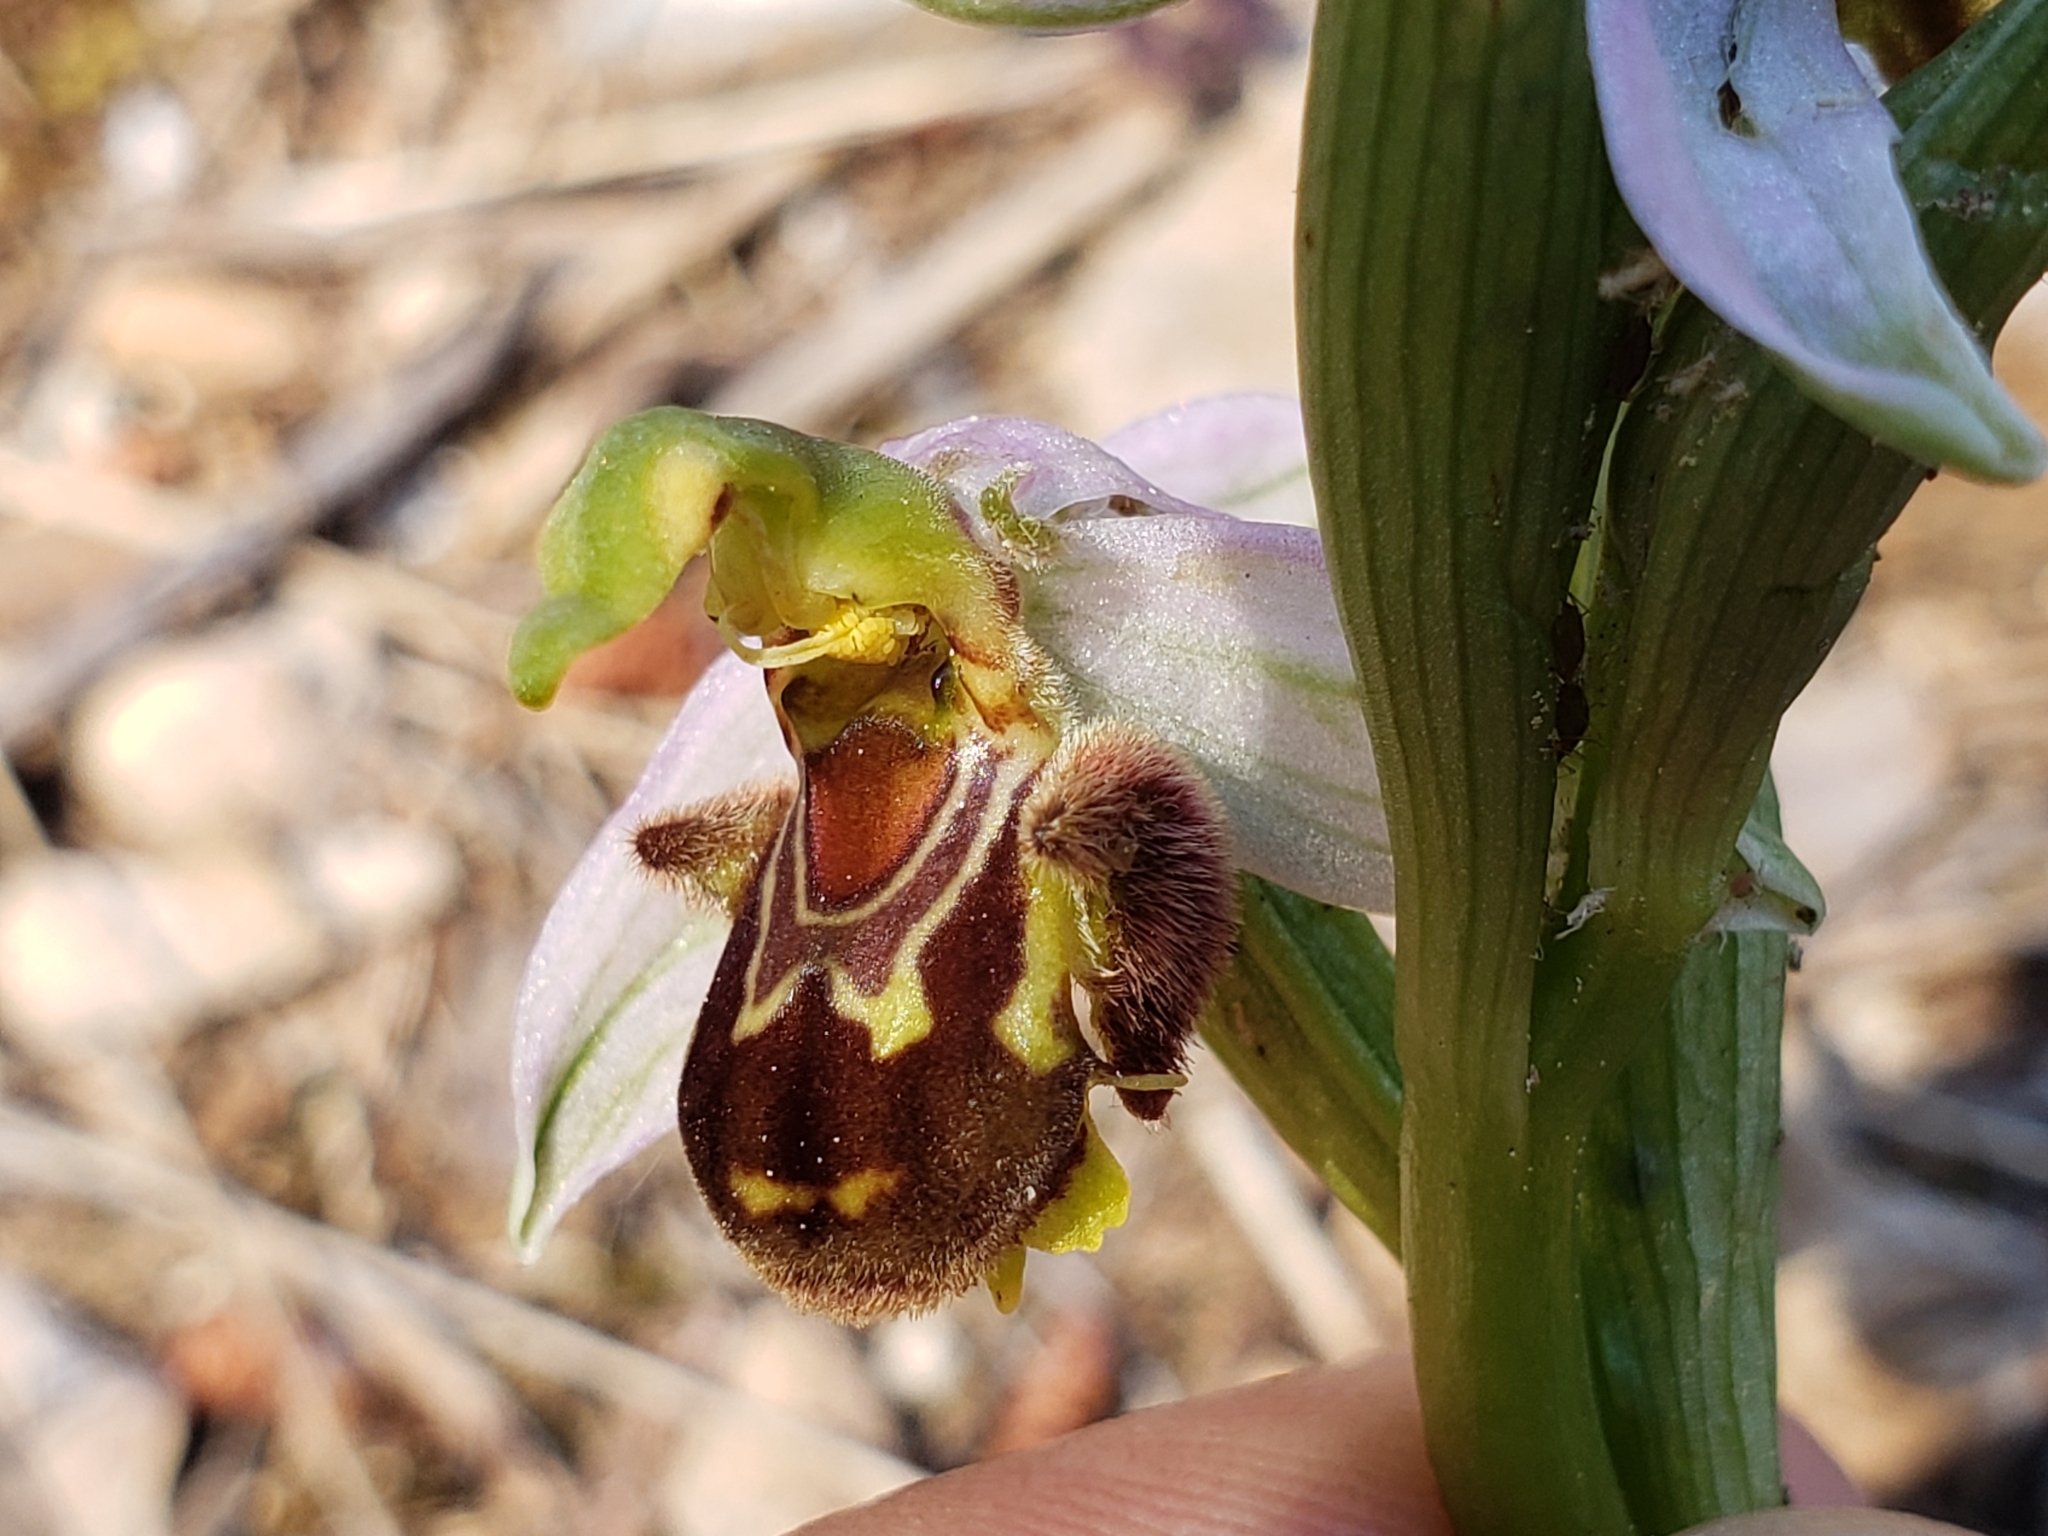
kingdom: Plantae
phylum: Tracheophyta
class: Liliopsida
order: Asparagales
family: Orchidaceae
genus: Ophrys
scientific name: Ophrys apifera
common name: Bee orchid
